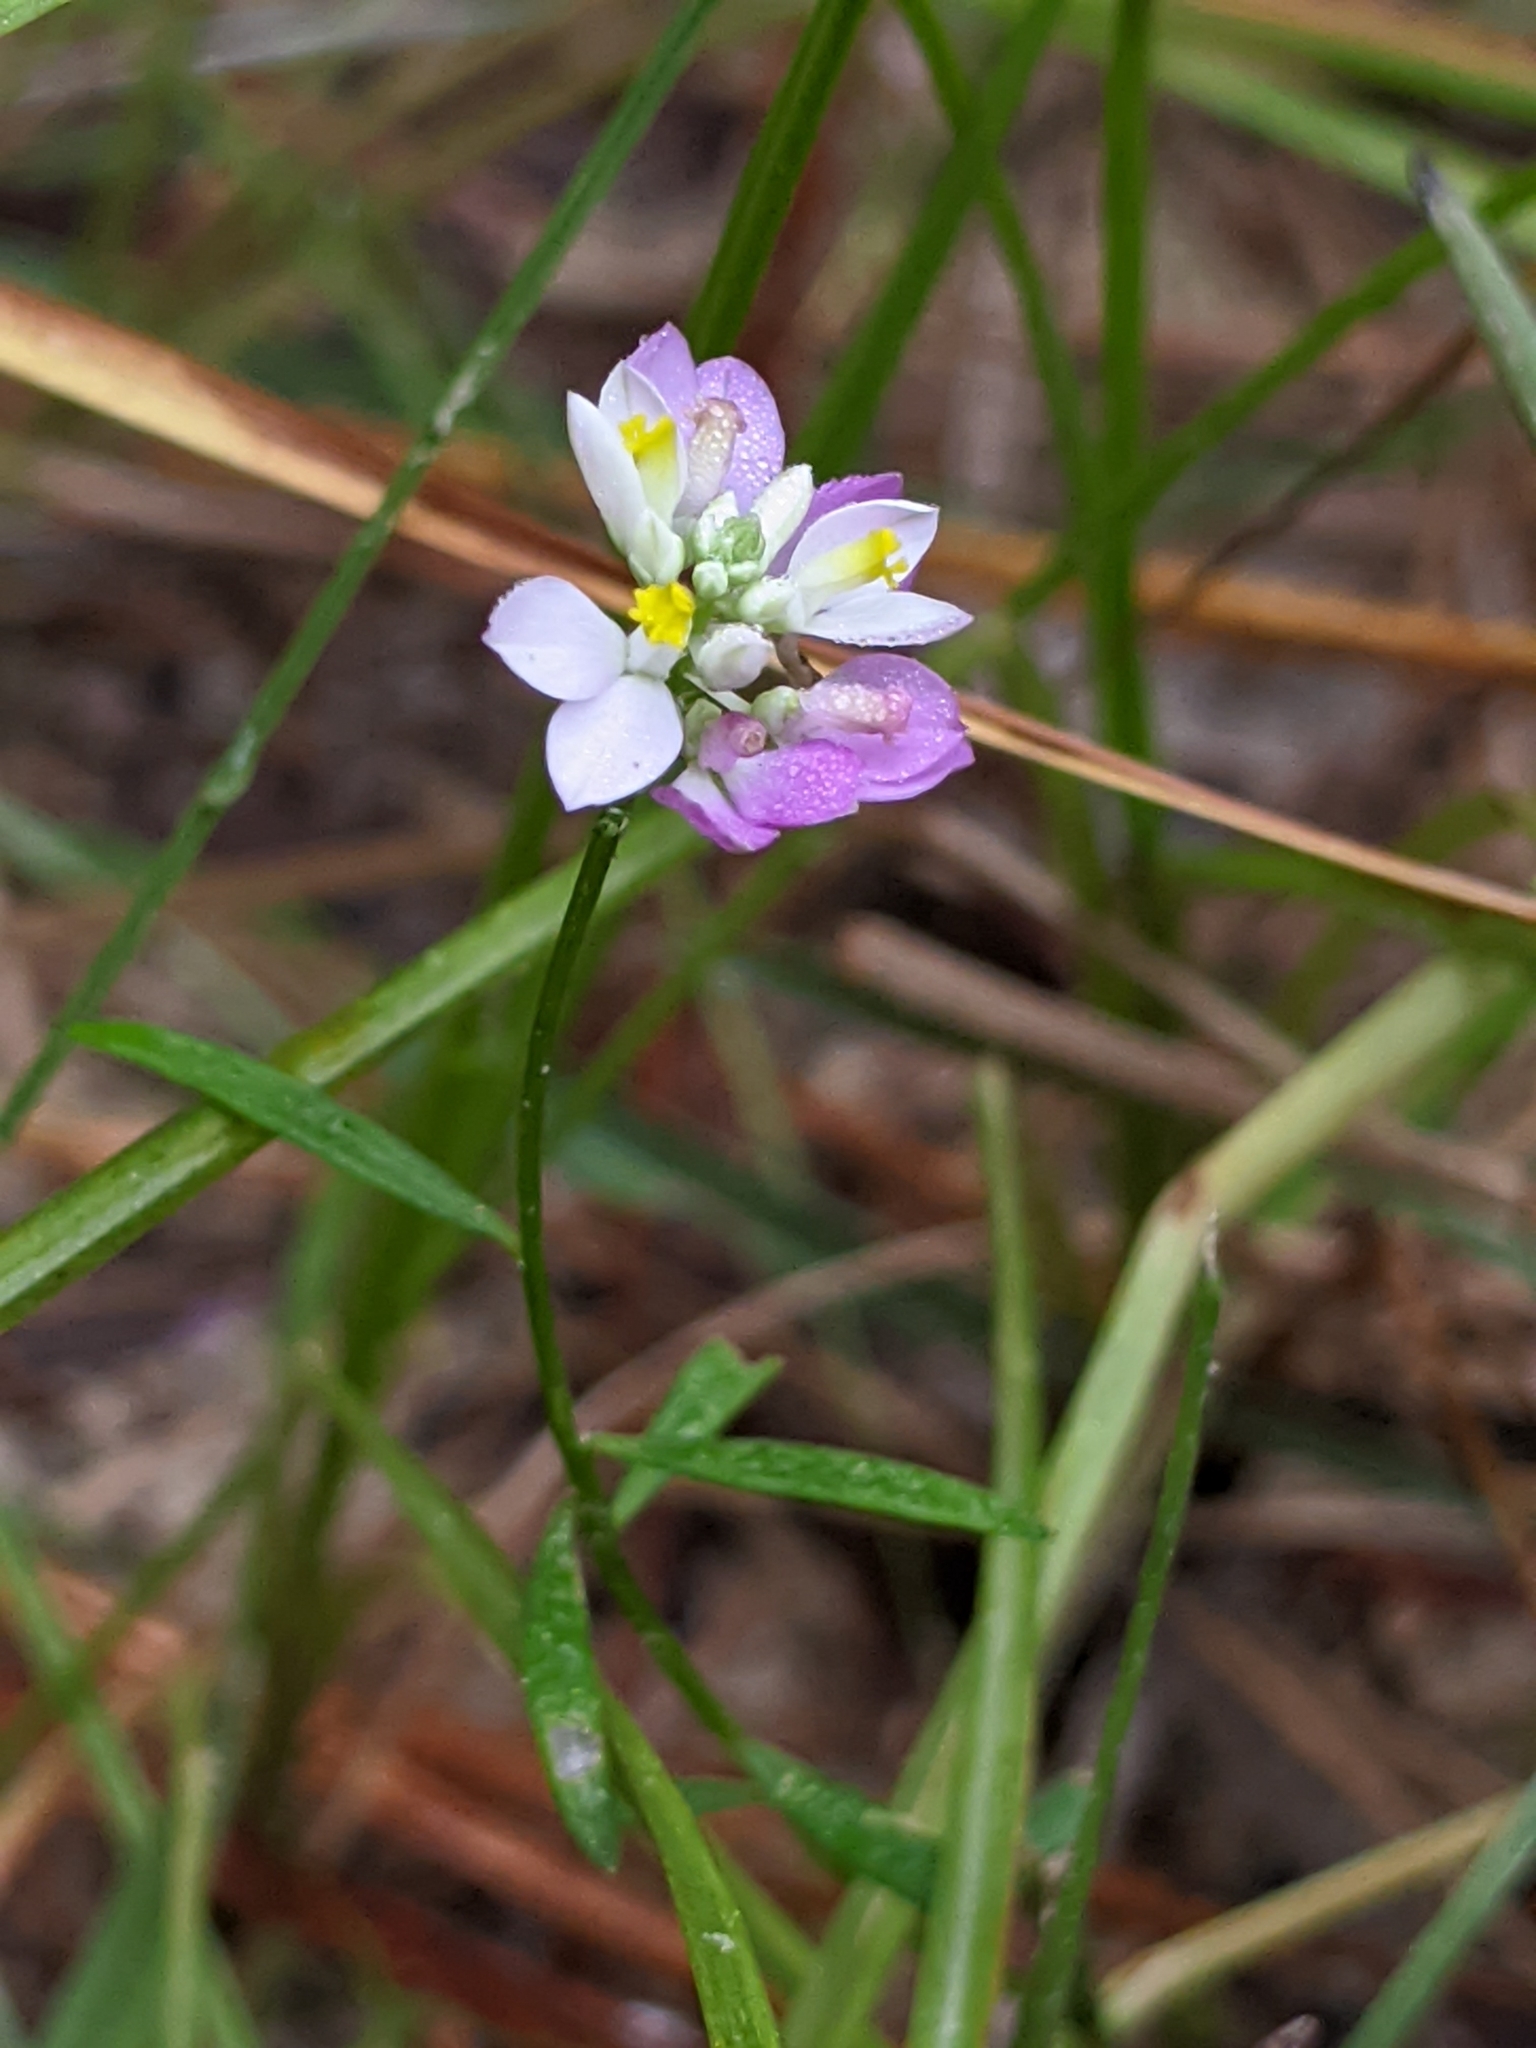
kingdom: Plantae
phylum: Tracheophyta
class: Magnoliopsida
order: Fabales
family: Polygalaceae
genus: Polygala
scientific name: Polygala mariana
